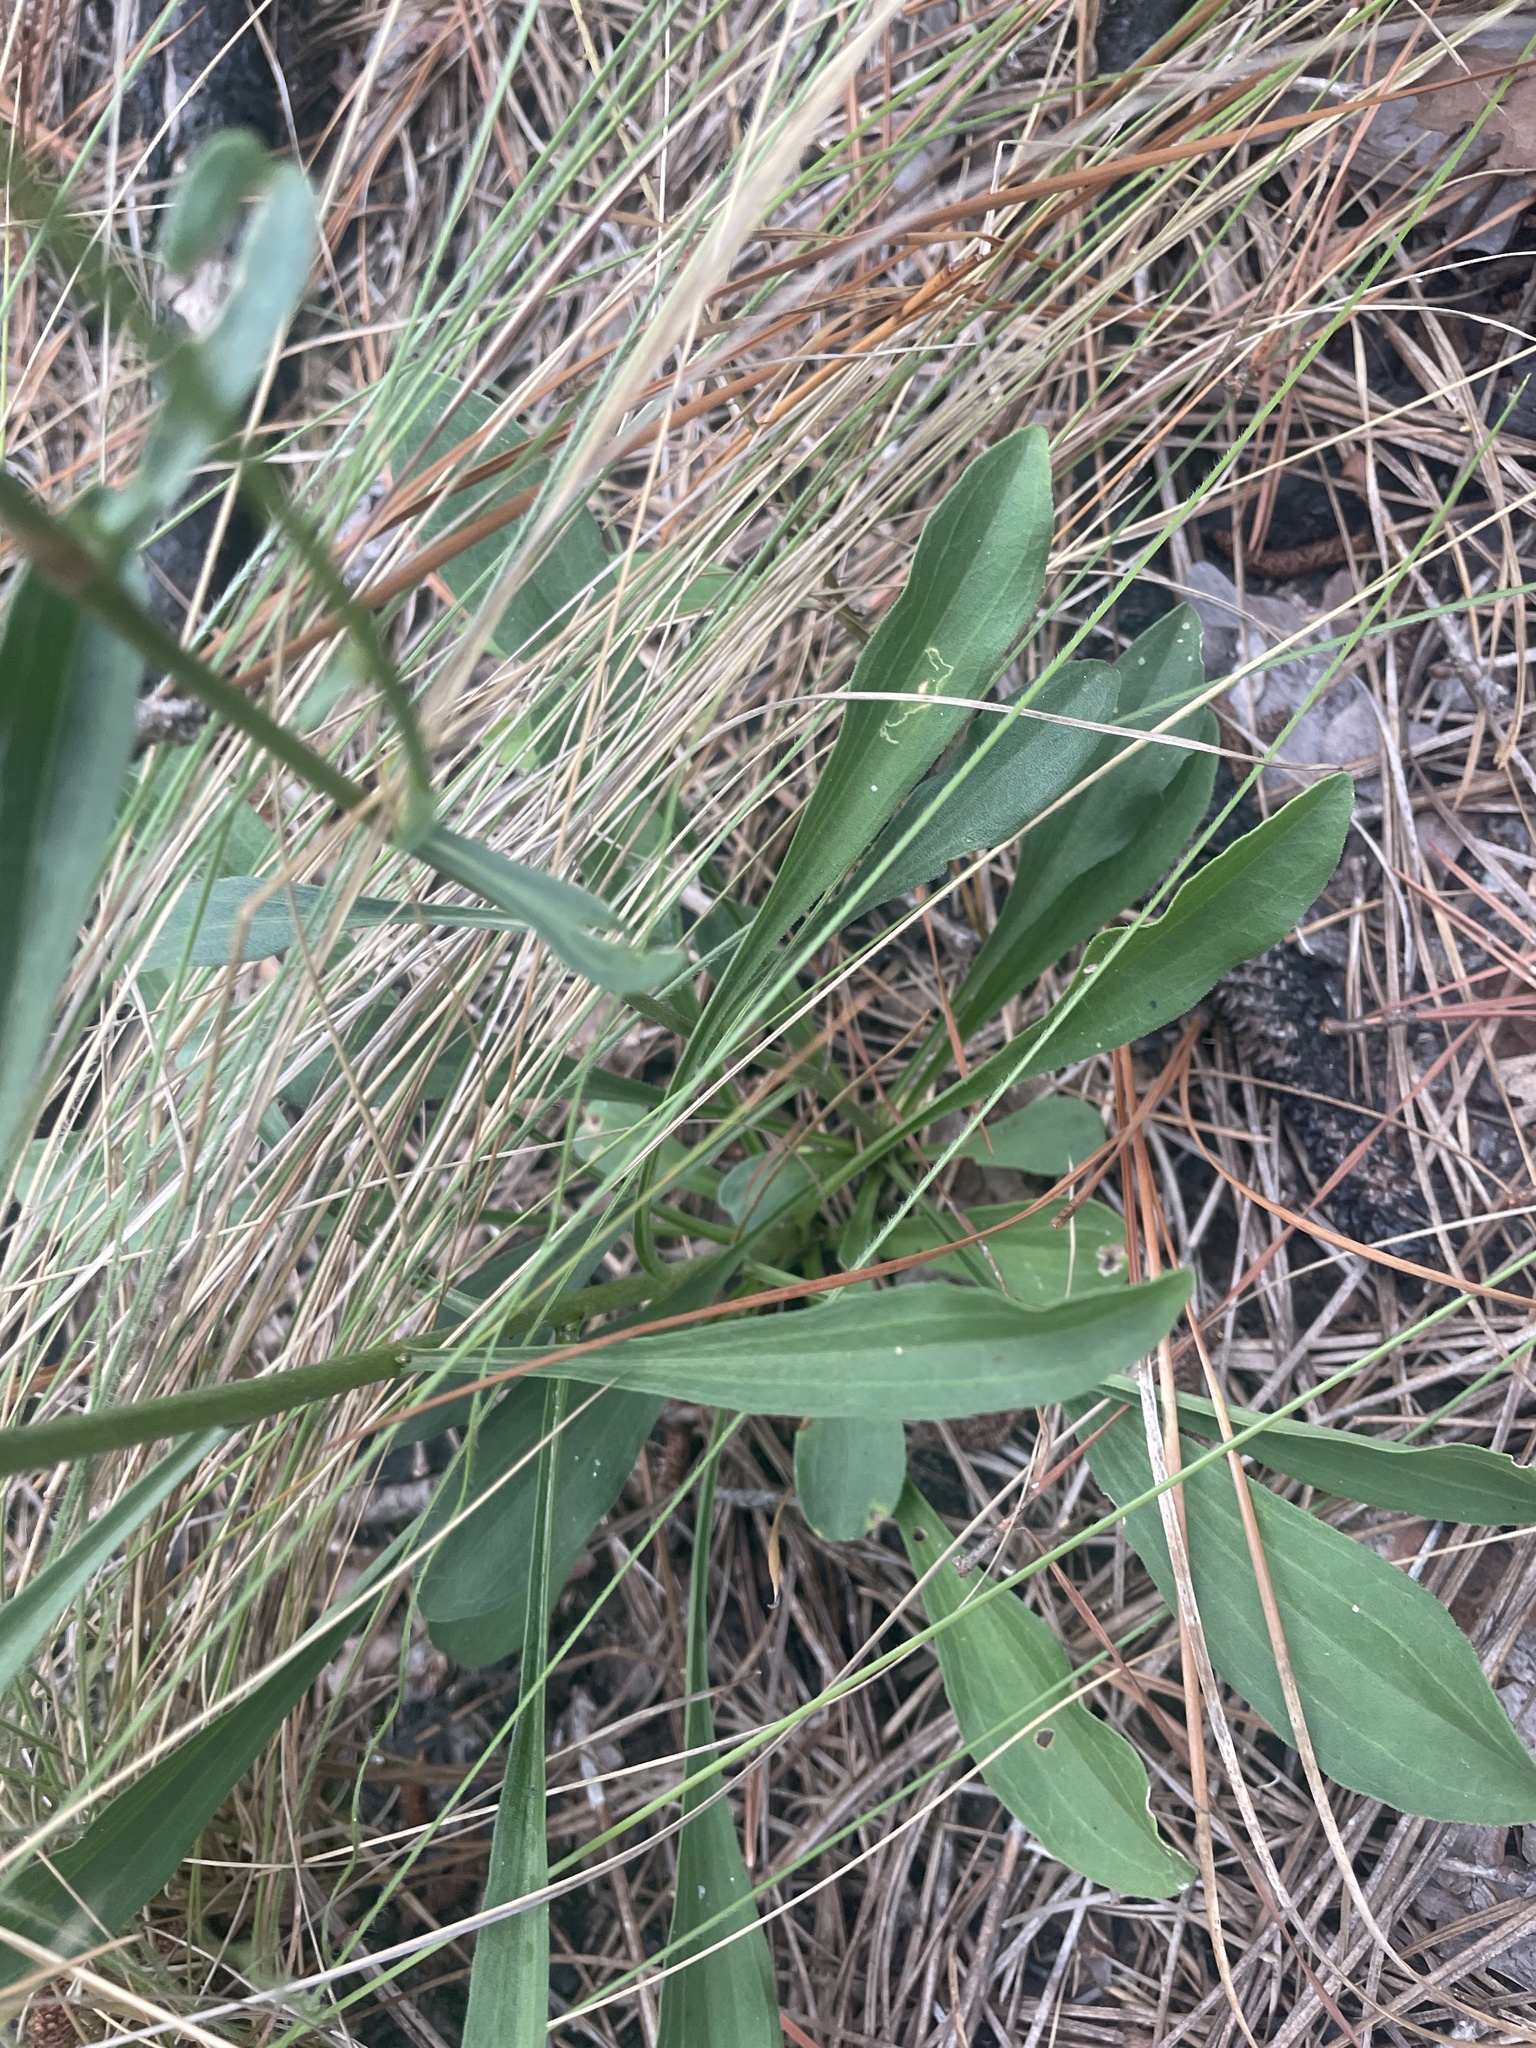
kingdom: Plantae
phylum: Tracheophyta
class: Magnoliopsida
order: Asterales
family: Asteraceae
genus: Carphephorus
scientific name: Carphephorus bellidifolius
